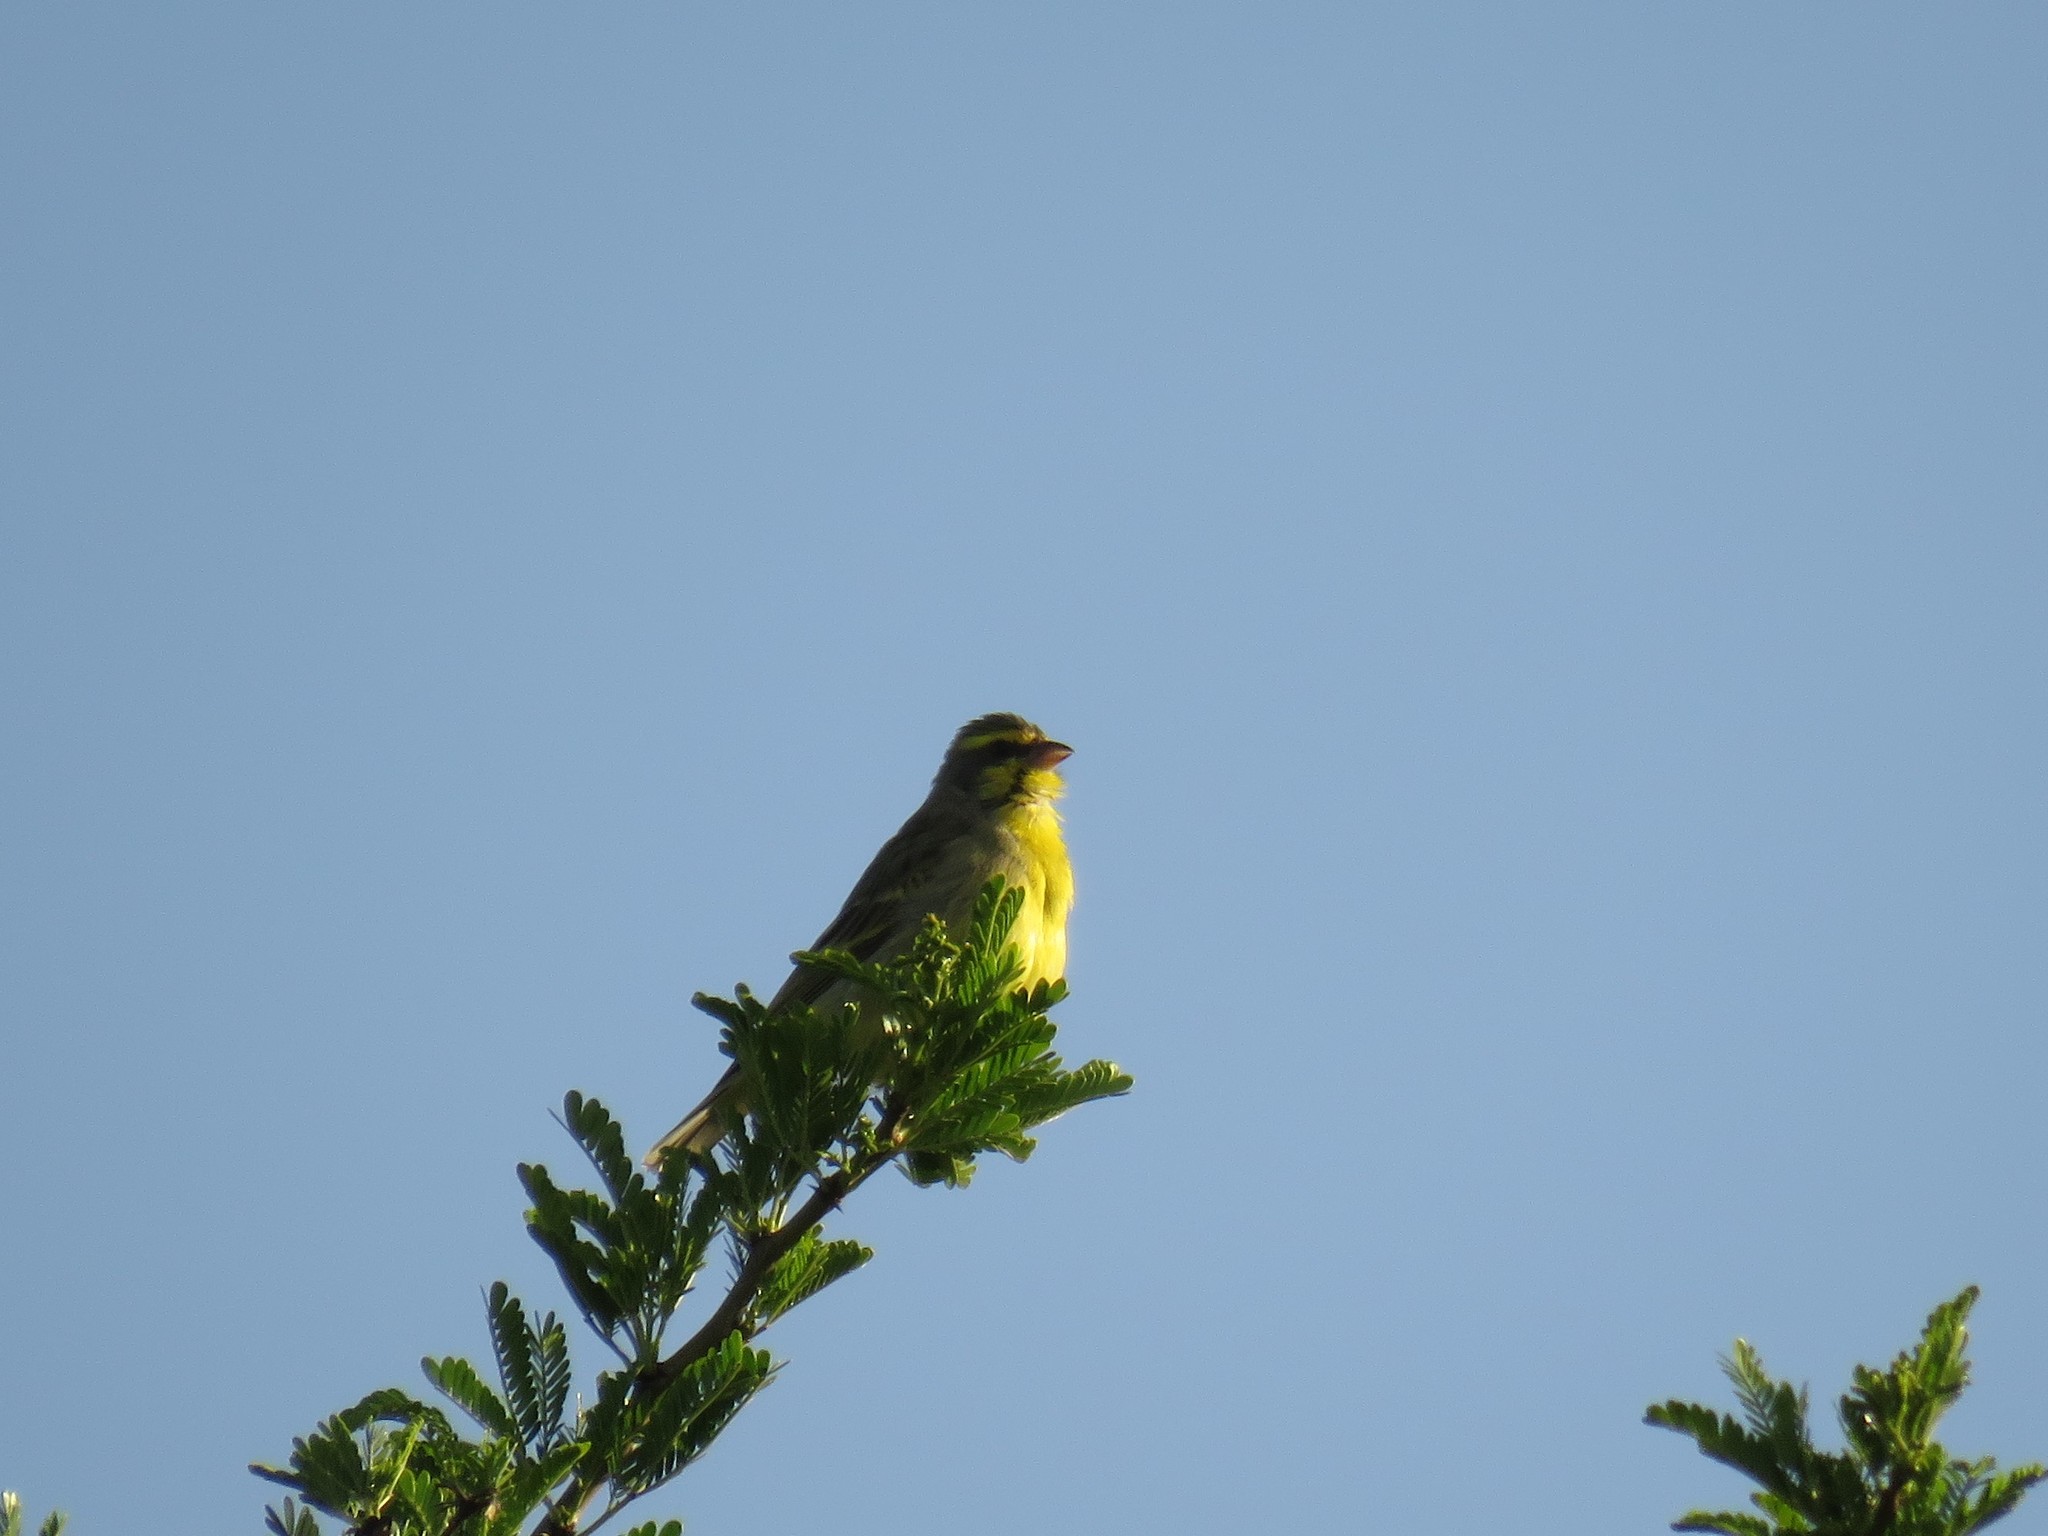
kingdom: Animalia
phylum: Chordata
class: Aves
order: Passeriformes
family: Fringillidae
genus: Crithagra
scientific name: Crithagra mozambica
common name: Yellow-fronted canary
